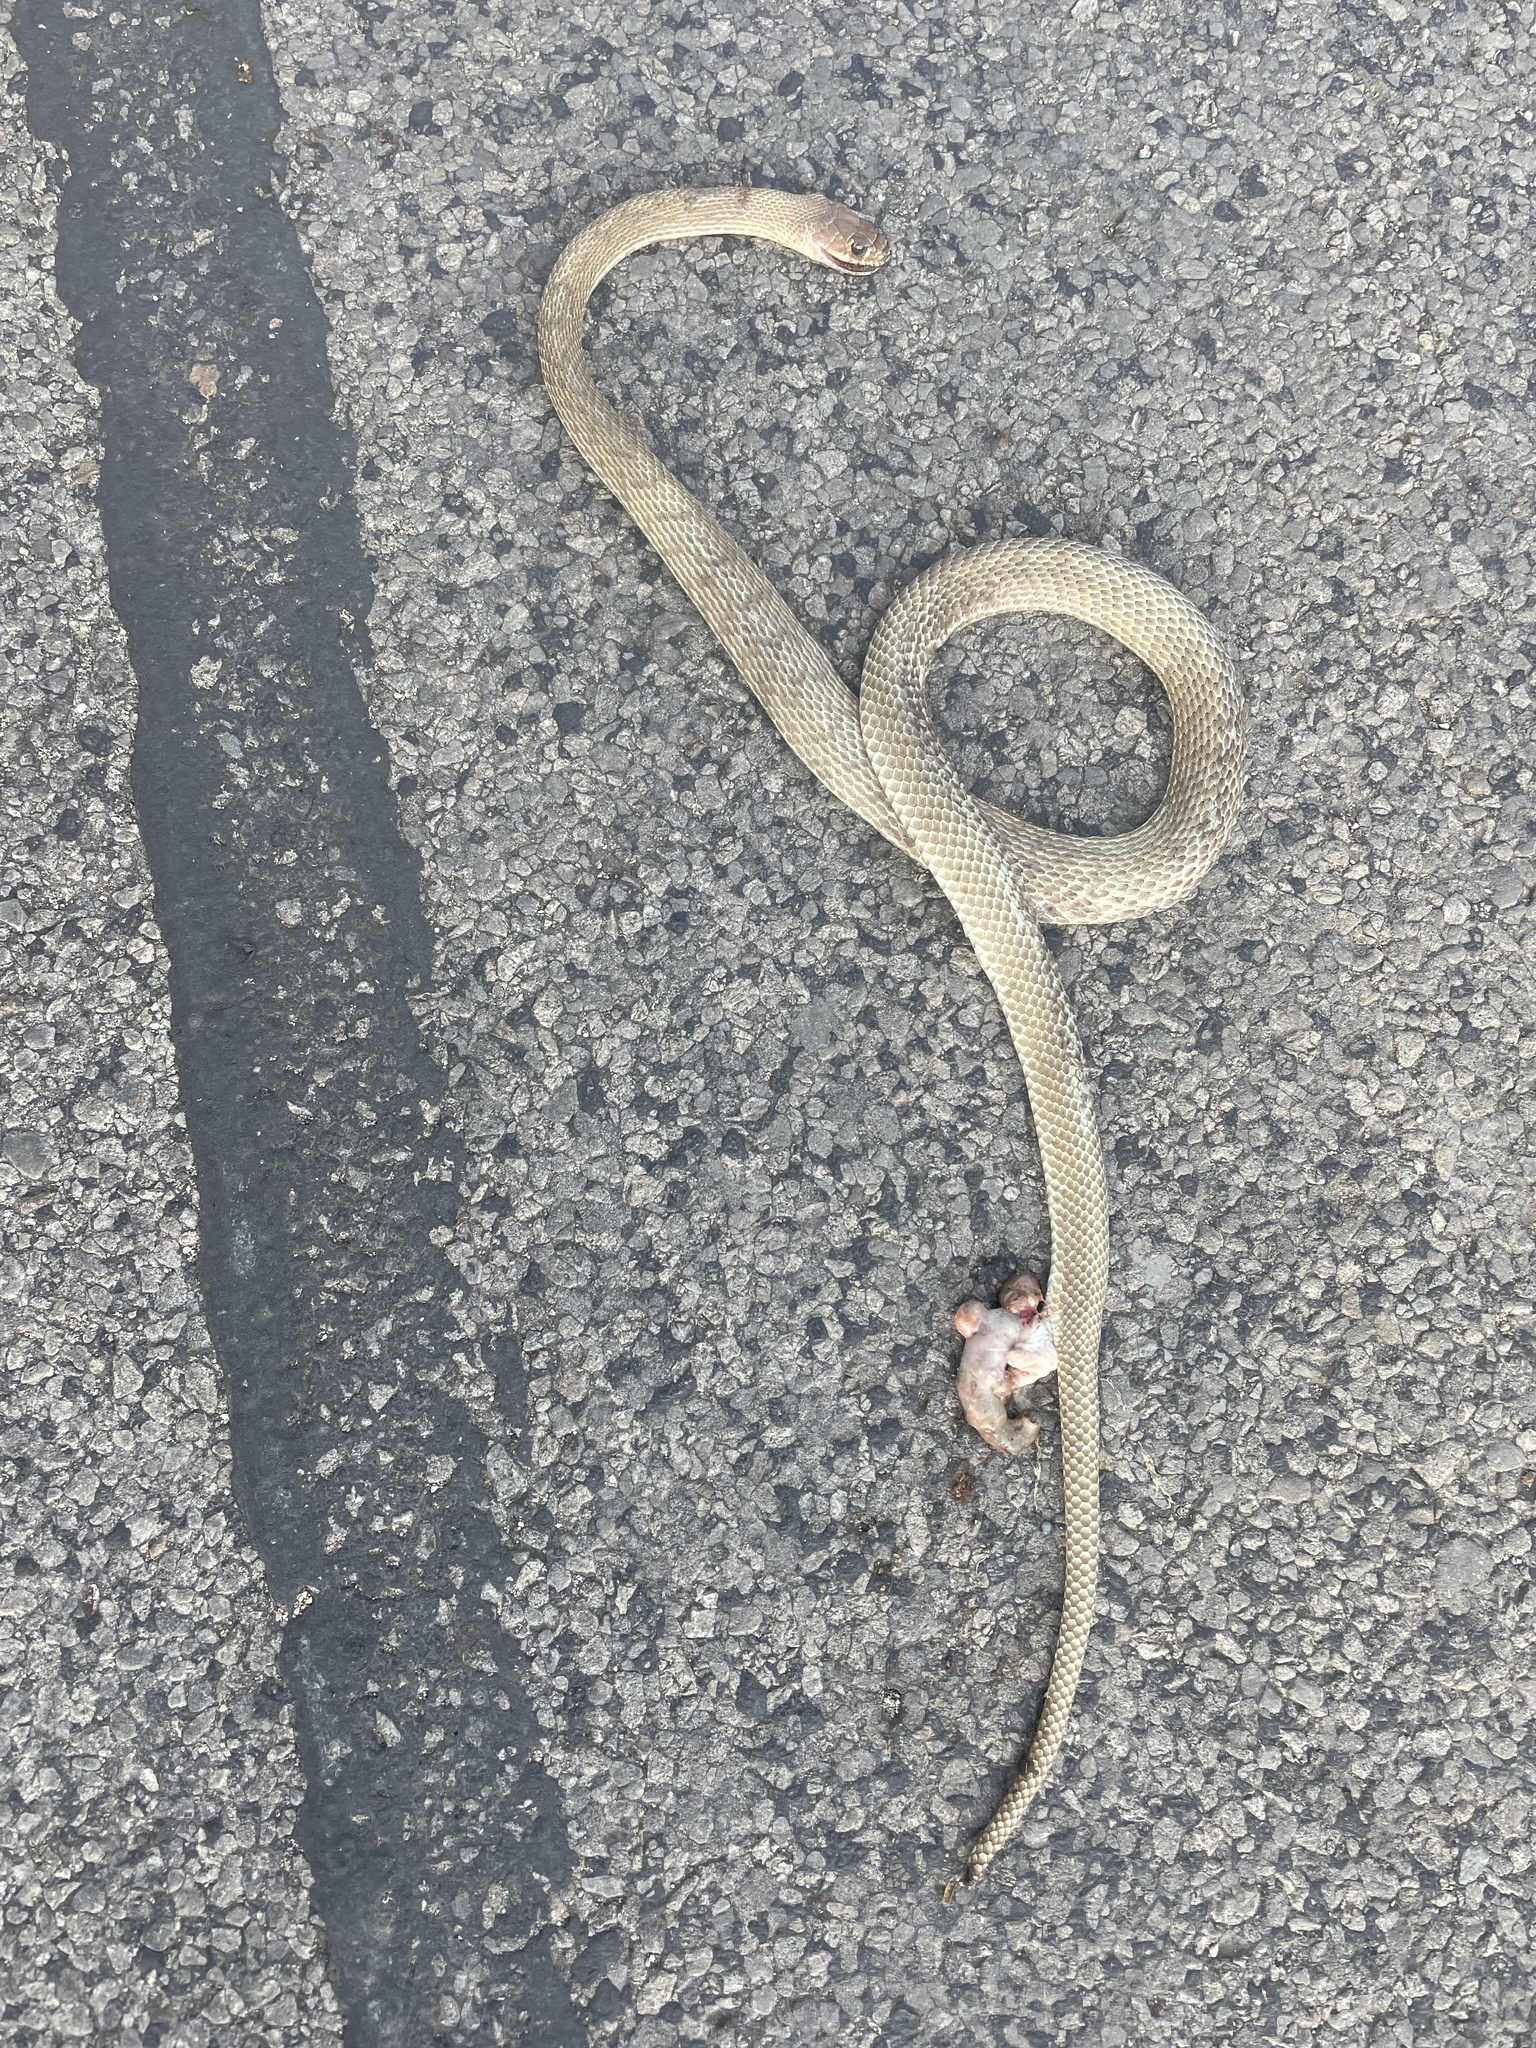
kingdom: Animalia
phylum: Chordata
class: Squamata
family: Colubridae
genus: Masticophis
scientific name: Masticophis flagellum
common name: Coachwhip
